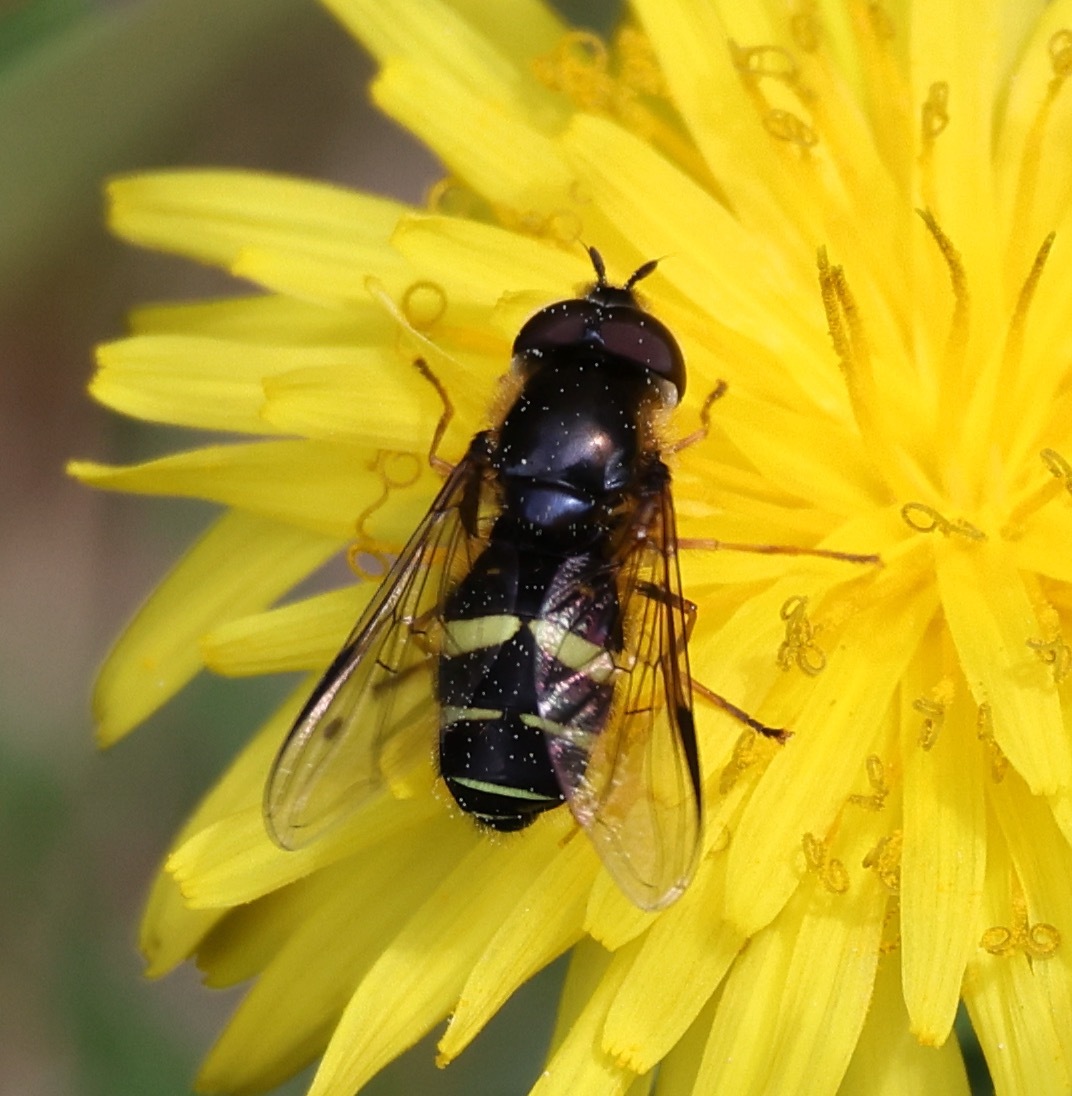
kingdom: Animalia
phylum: Arthropoda
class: Insecta
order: Diptera
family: Syrphidae
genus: Dasysyrphus
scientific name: Dasysyrphus tricinctus
